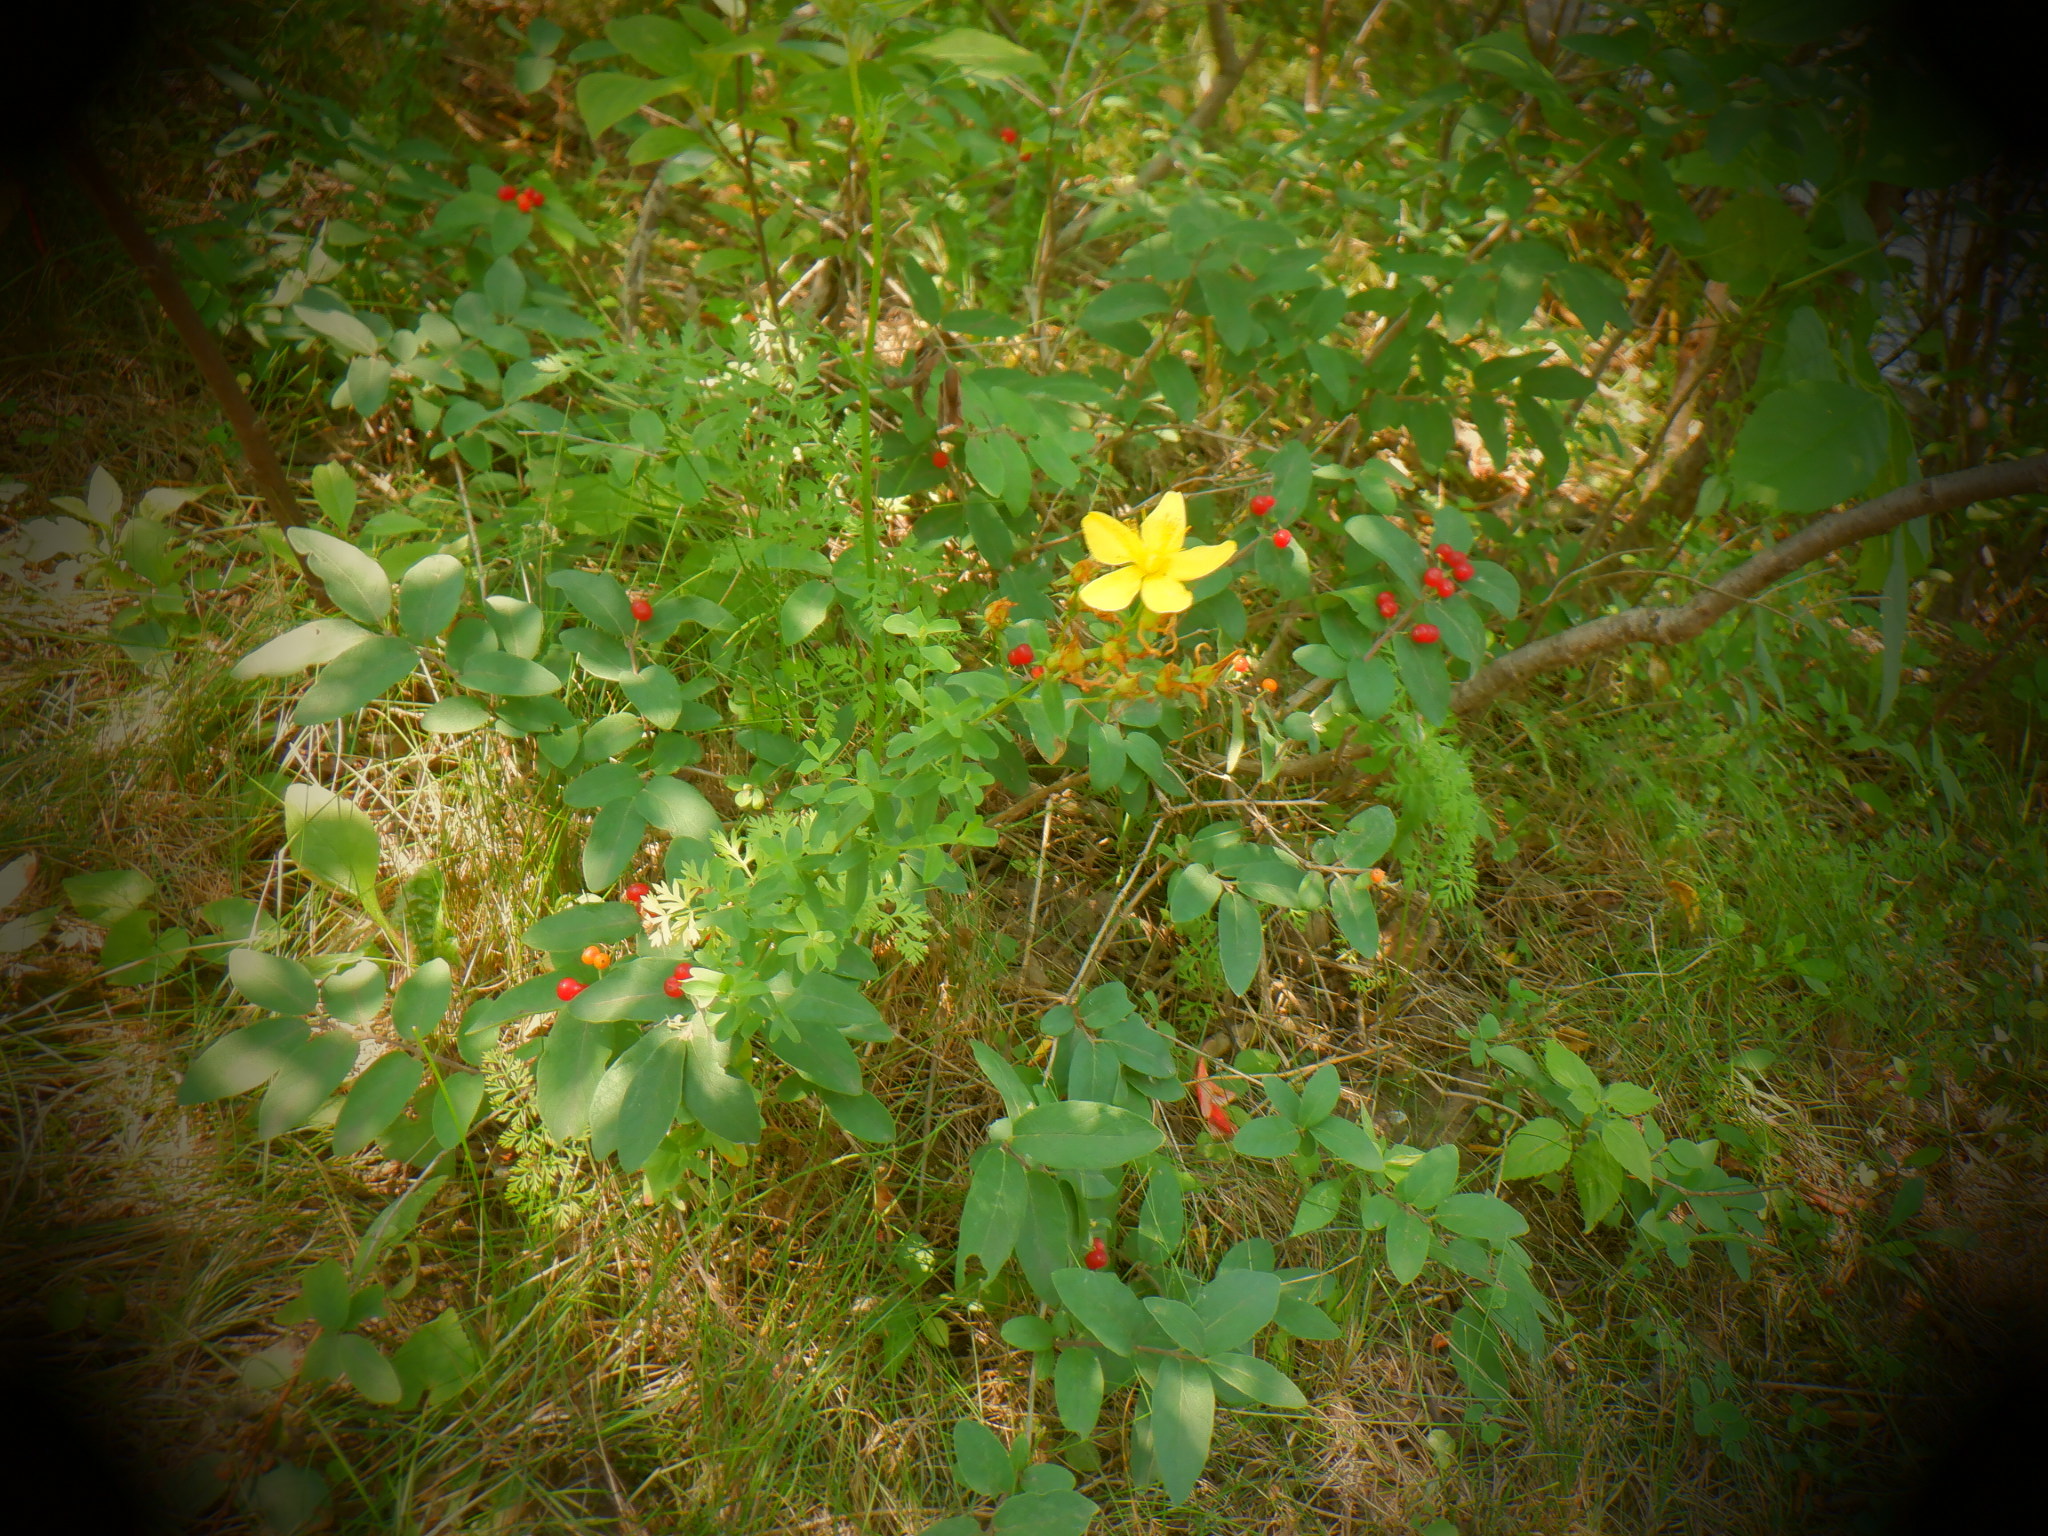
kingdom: Plantae
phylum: Tracheophyta
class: Magnoliopsida
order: Dipsacales
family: Caprifoliaceae
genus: Lonicera
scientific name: Lonicera tatarica
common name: Tatarian honeysuckle
